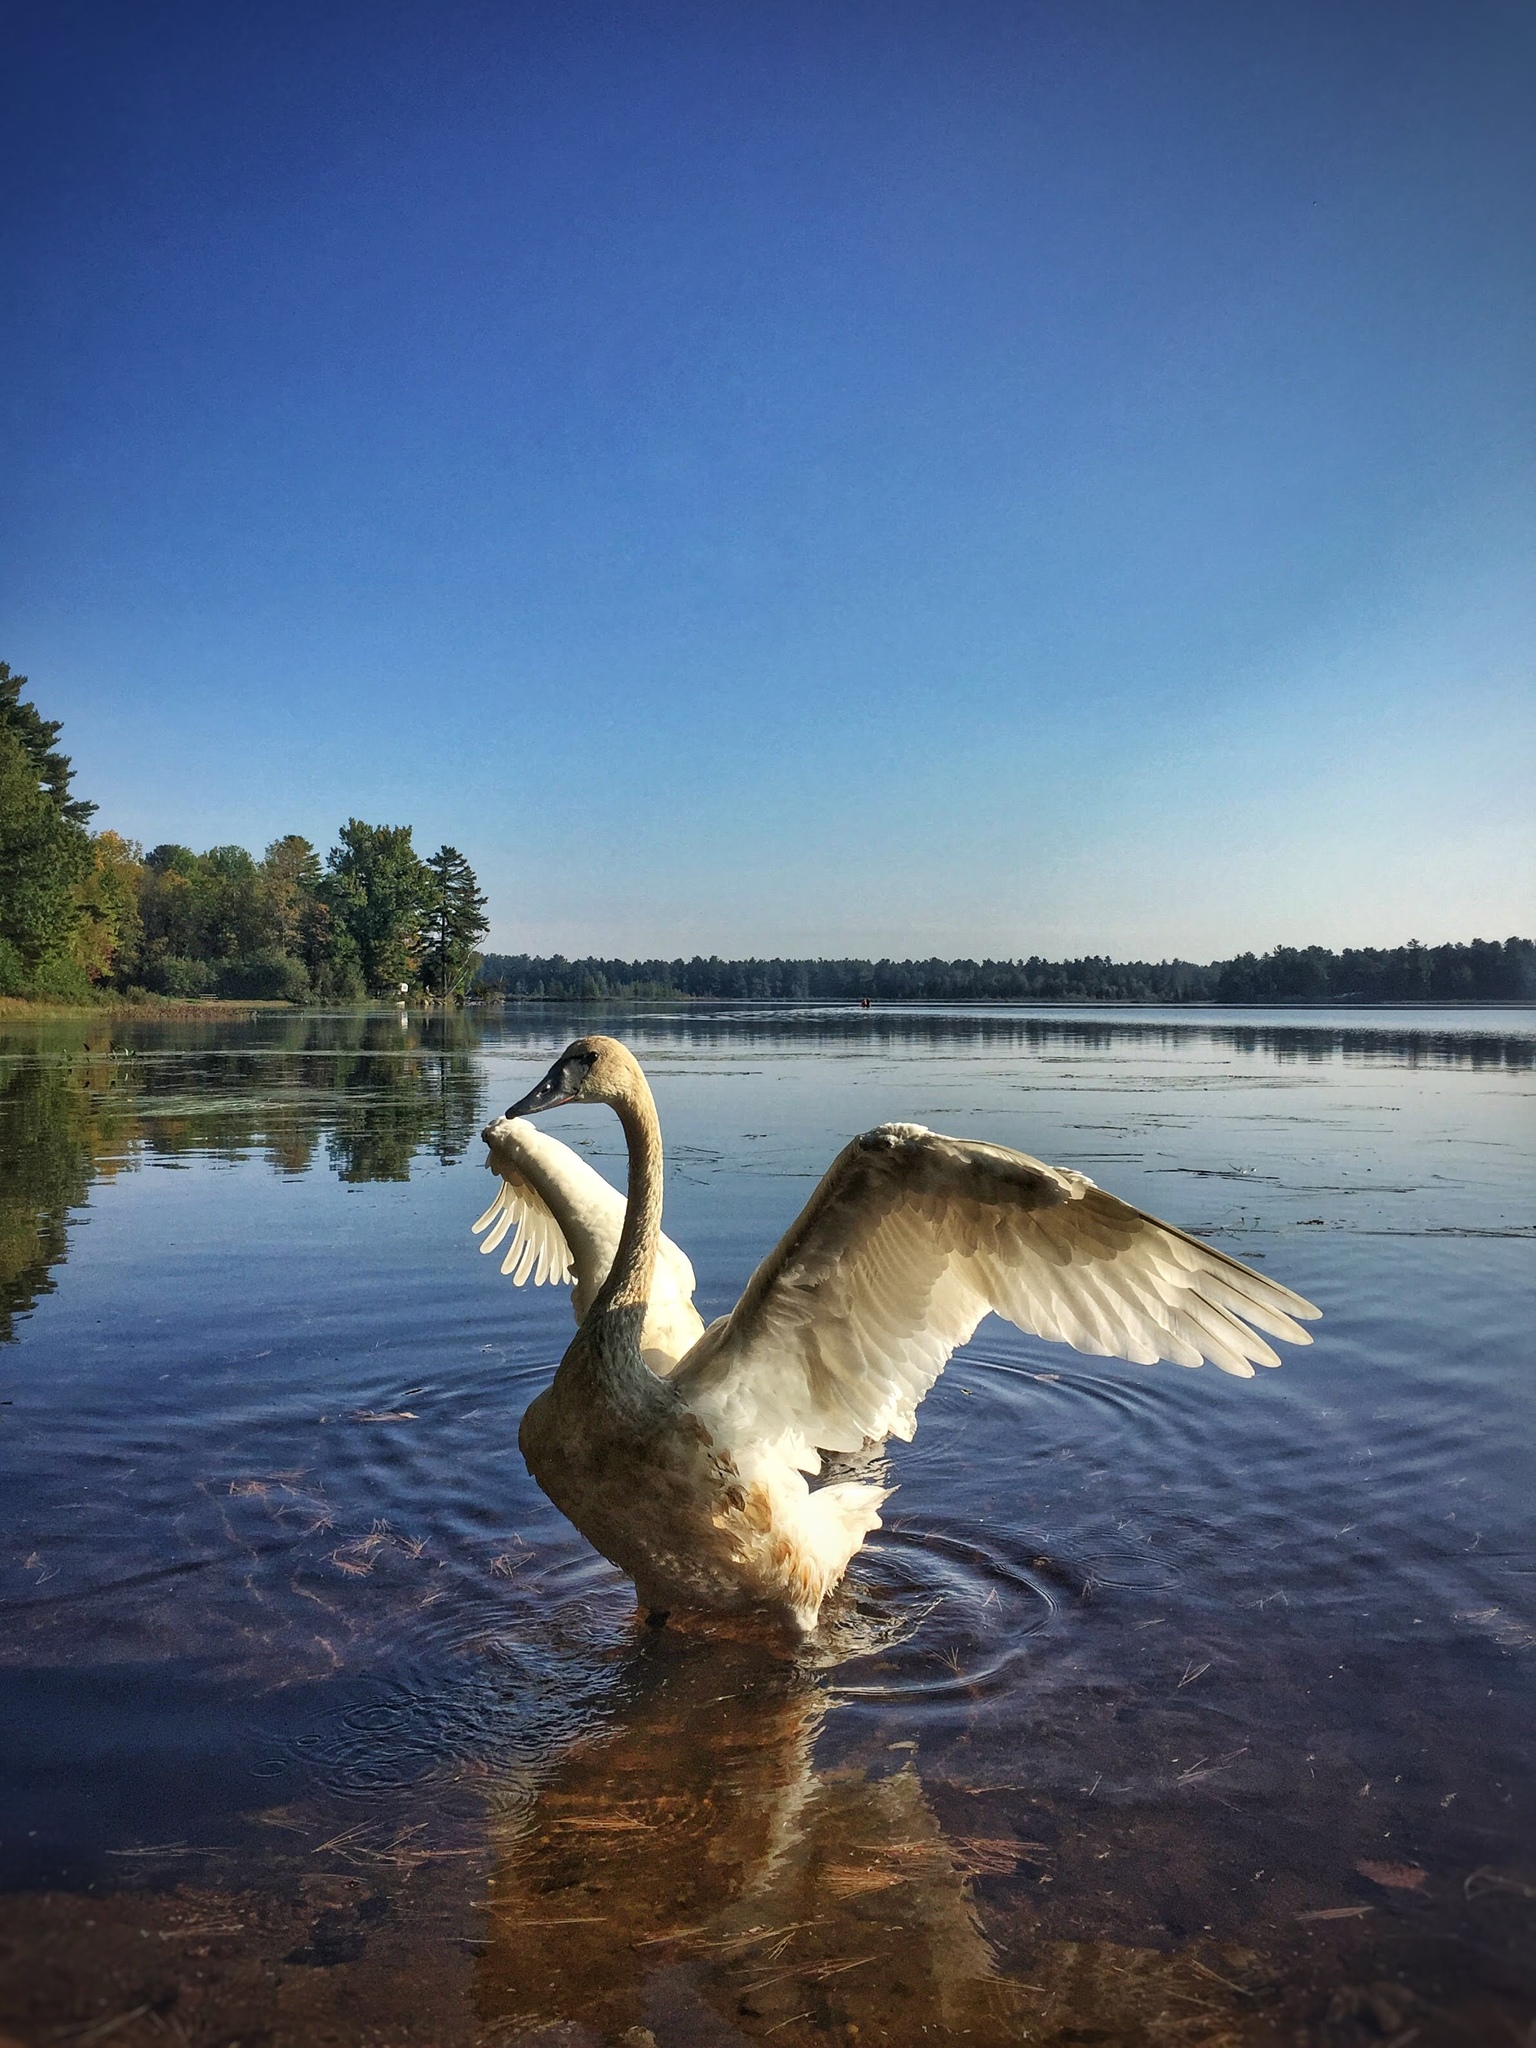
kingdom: Animalia
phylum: Chordata
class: Aves
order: Anseriformes
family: Anatidae
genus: Cygnus
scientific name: Cygnus buccinator
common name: Trumpeter swan
